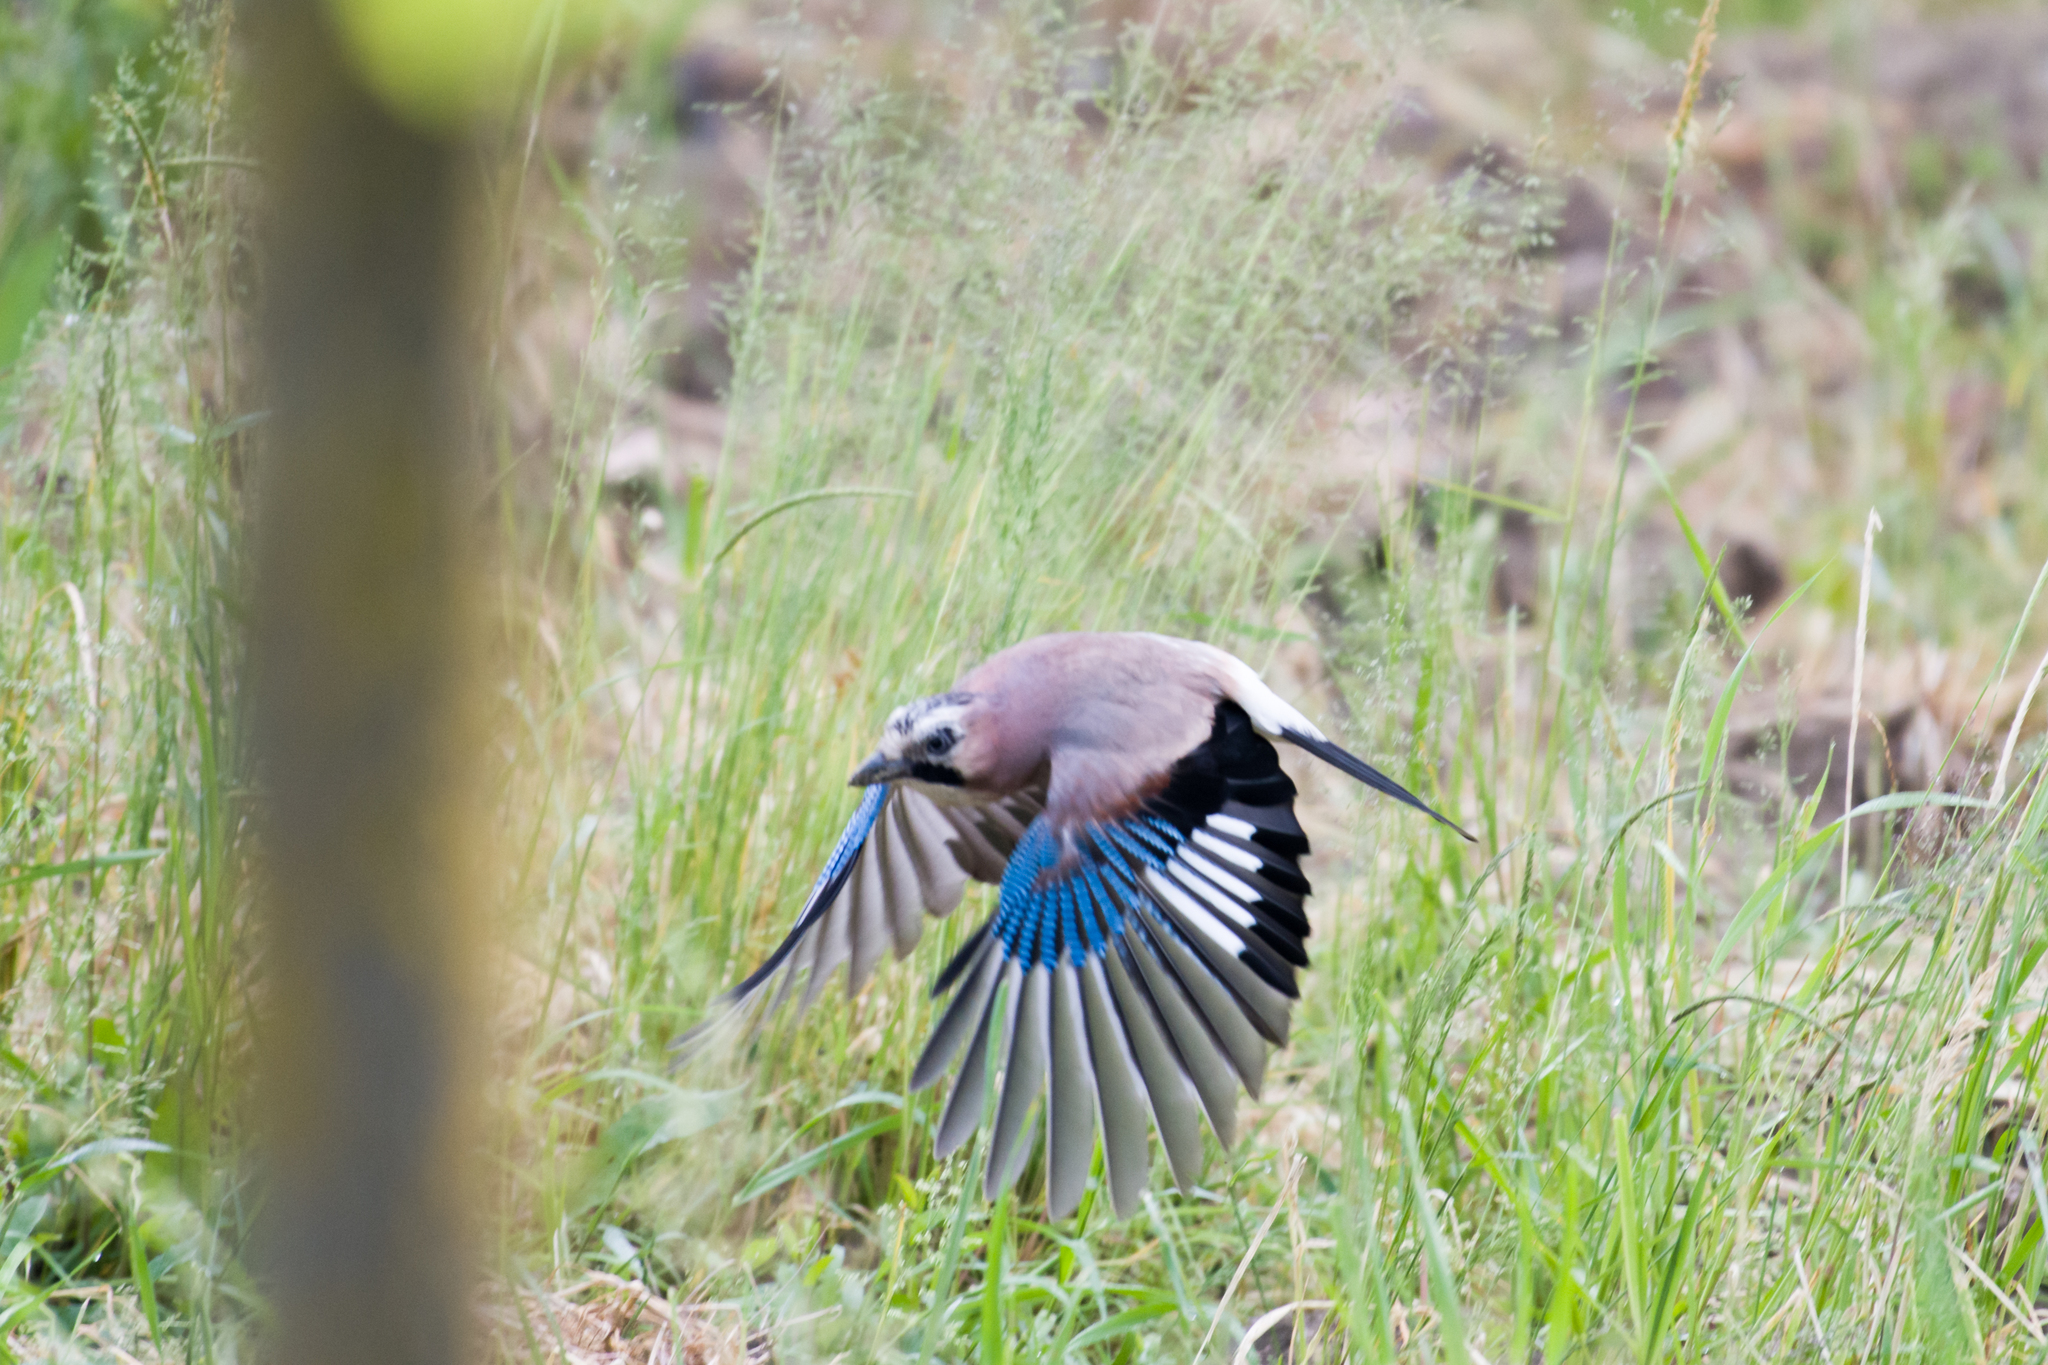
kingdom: Animalia
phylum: Chordata
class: Aves
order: Passeriformes
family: Corvidae
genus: Garrulus
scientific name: Garrulus glandarius
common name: Eurasian jay
